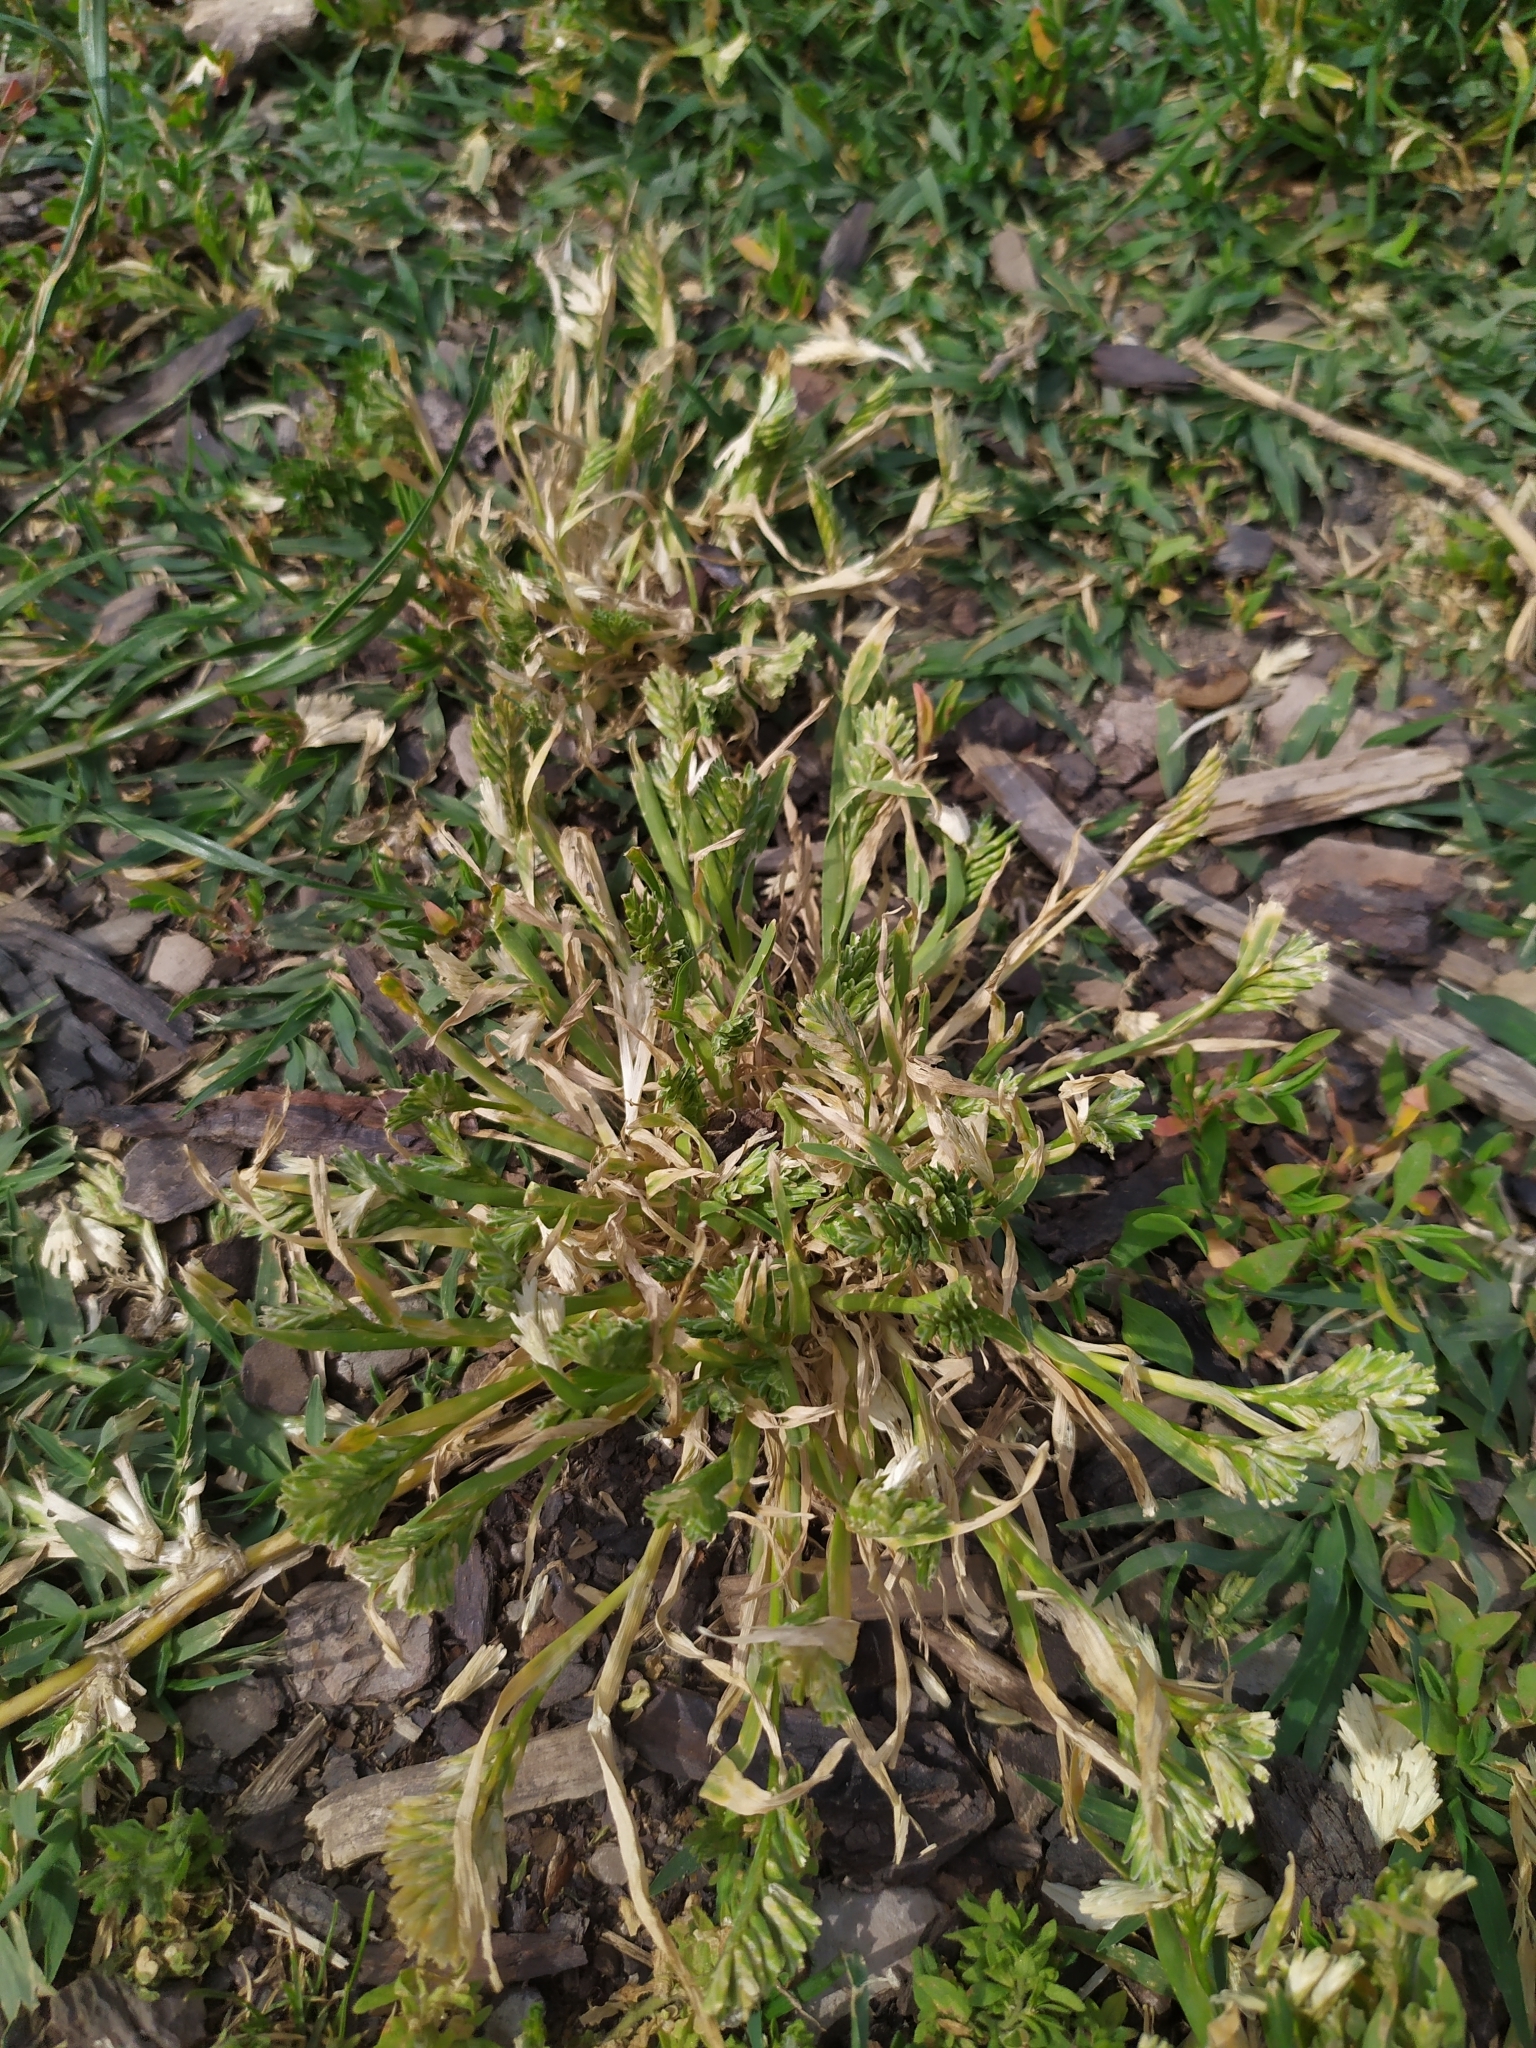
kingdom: Plantae
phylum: Tracheophyta
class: Liliopsida
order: Poales
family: Poaceae
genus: Sclerochloa
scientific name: Sclerochloa dura
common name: Common hardgrass
